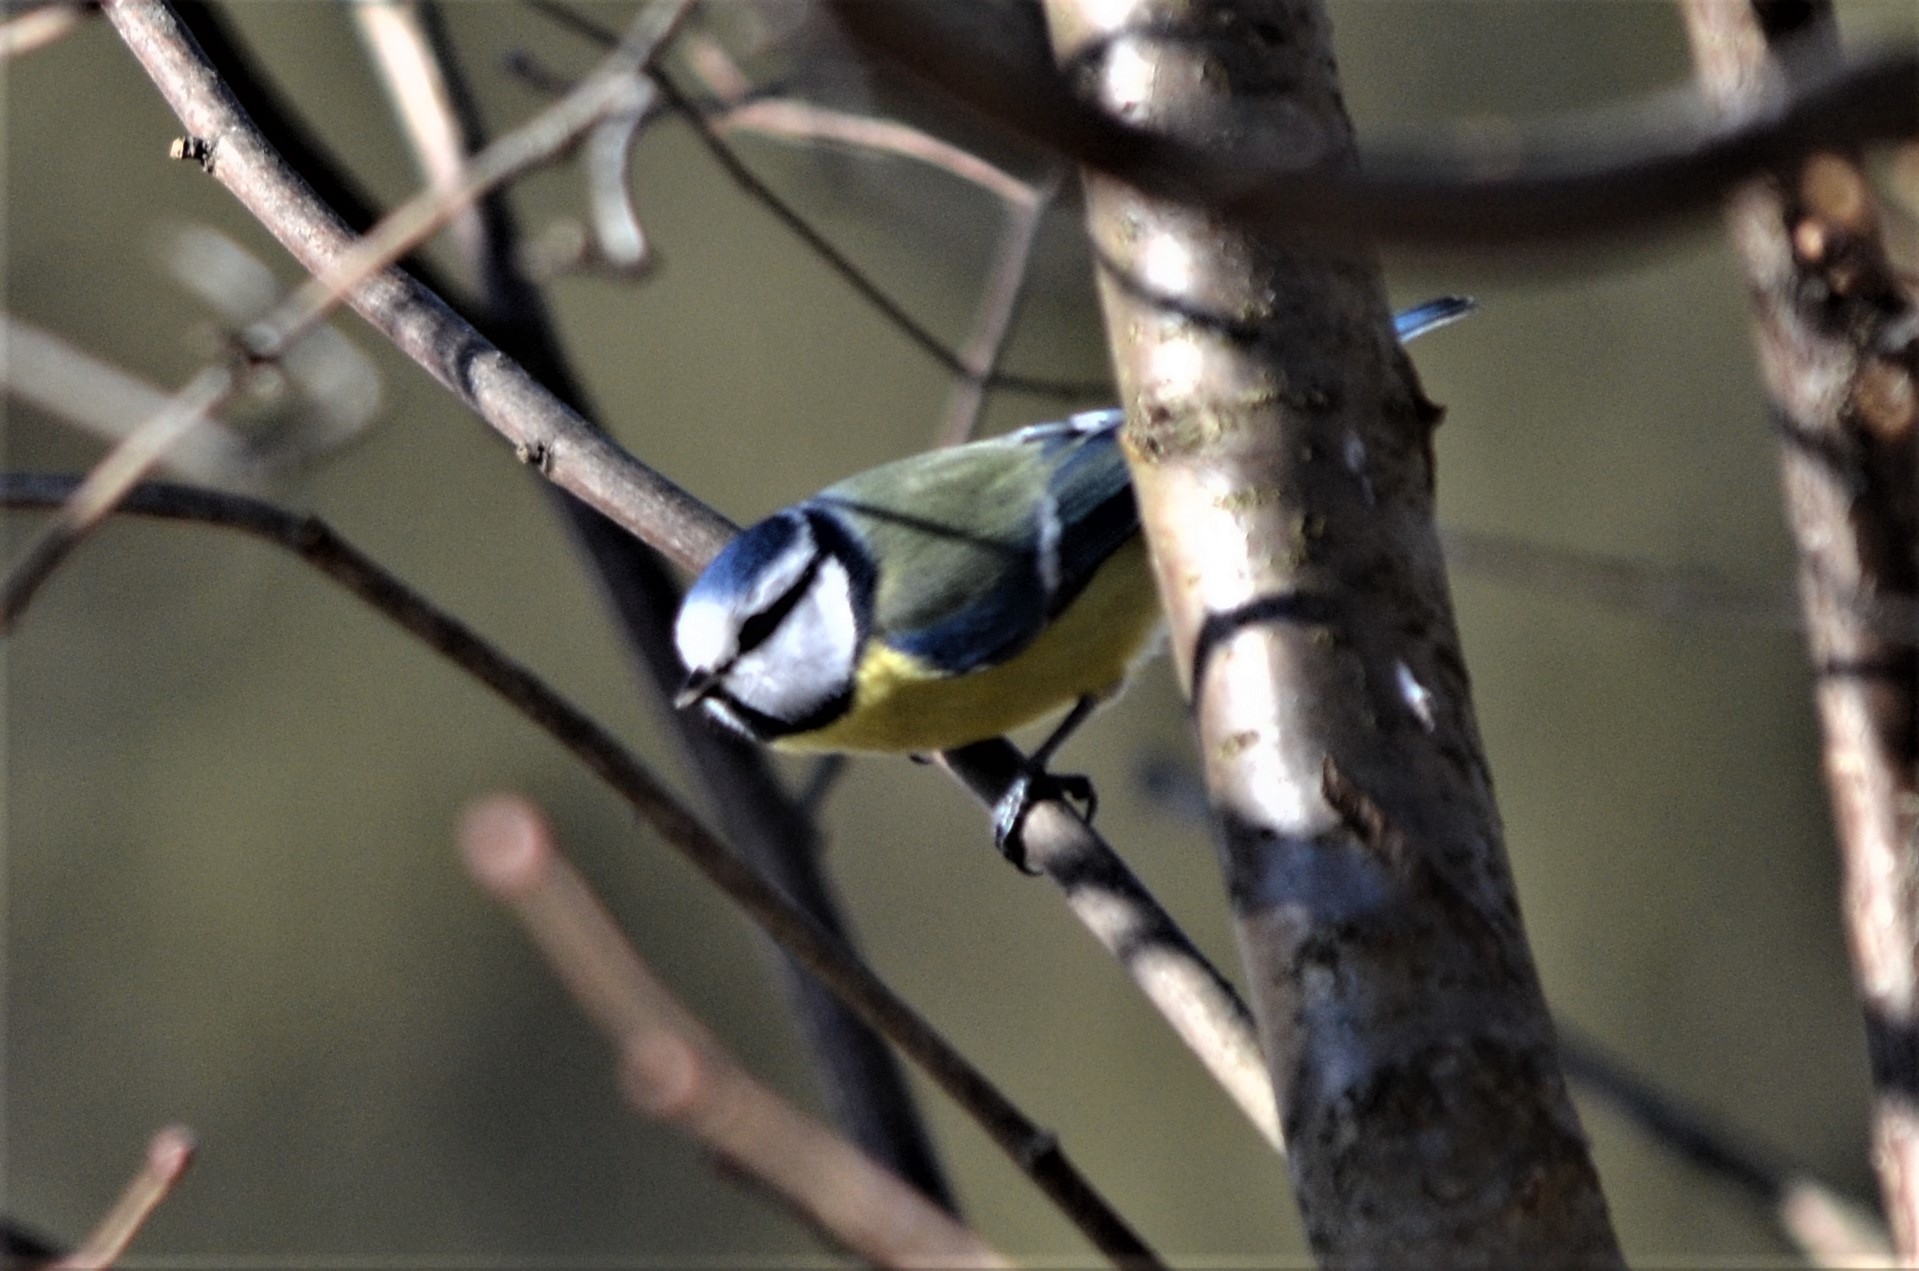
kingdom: Animalia
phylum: Chordata
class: Aves
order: Passeriformes
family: Paridae
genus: Cyanistes
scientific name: Cyanistes caeruleus
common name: Eurasian blue tit
